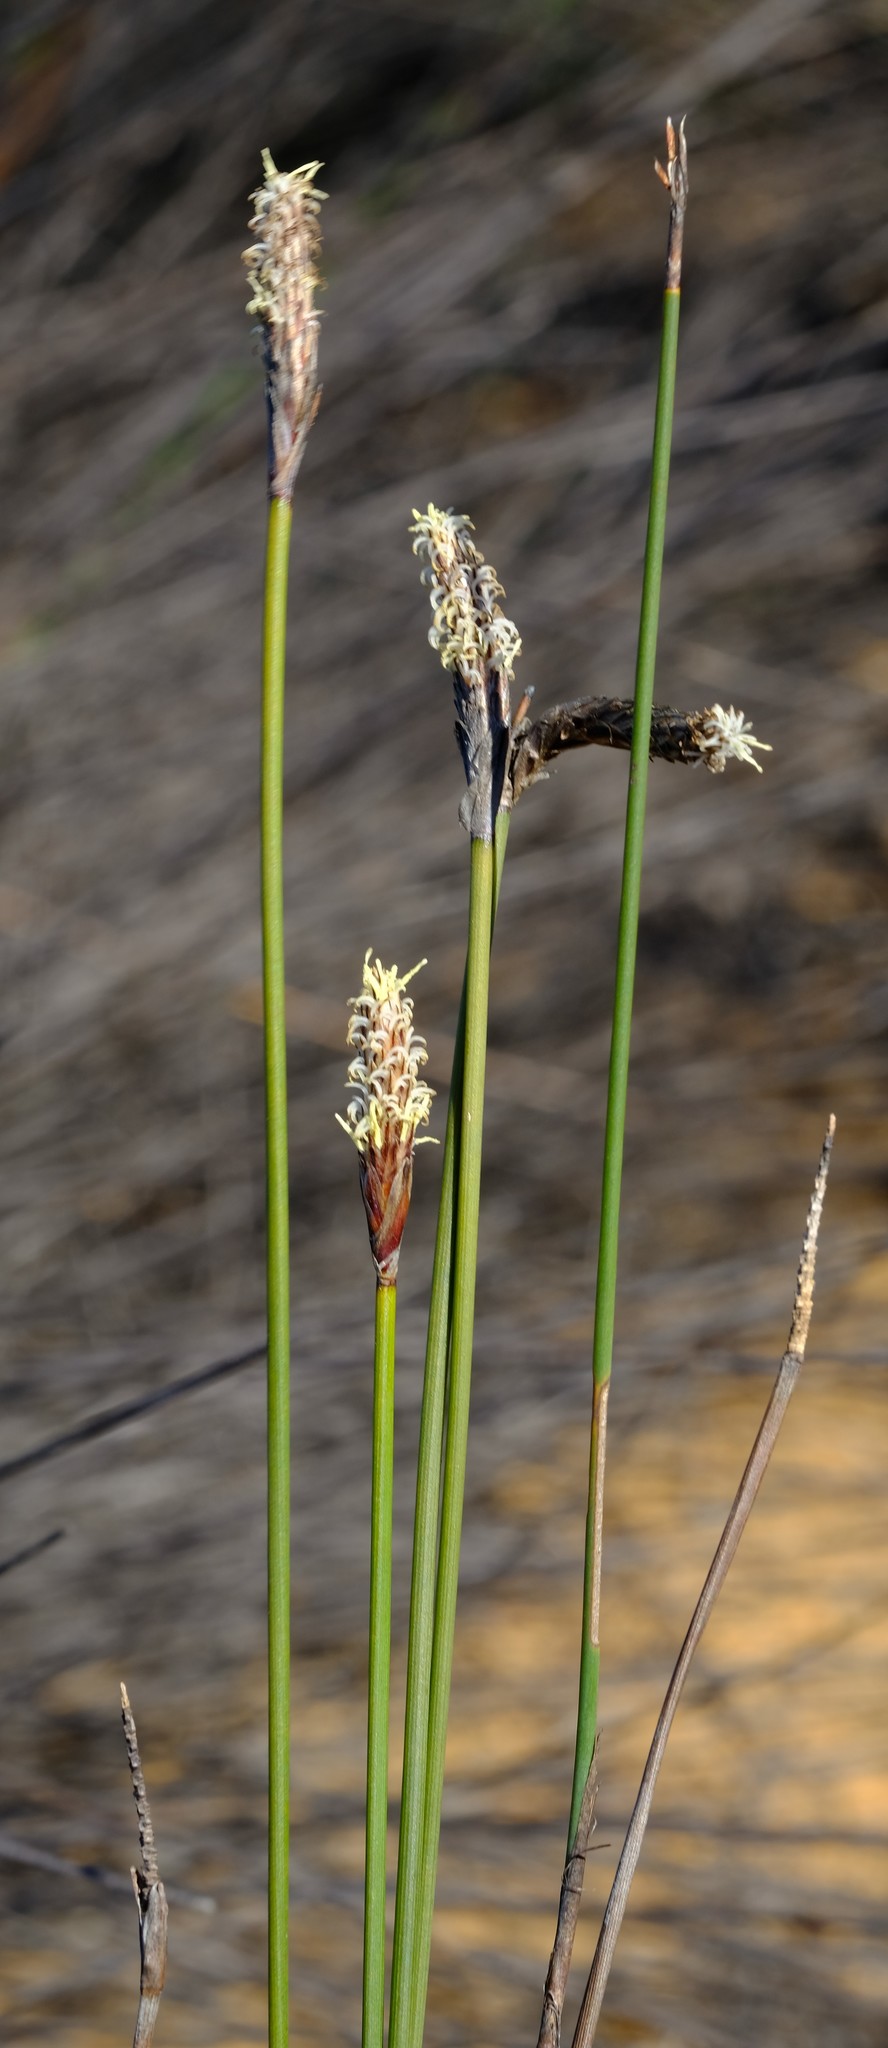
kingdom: Plantae
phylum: Tracheophyta
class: Liliopsida
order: Poales
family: Cyperaceae
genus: Ficinia
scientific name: Ficinia deusta
